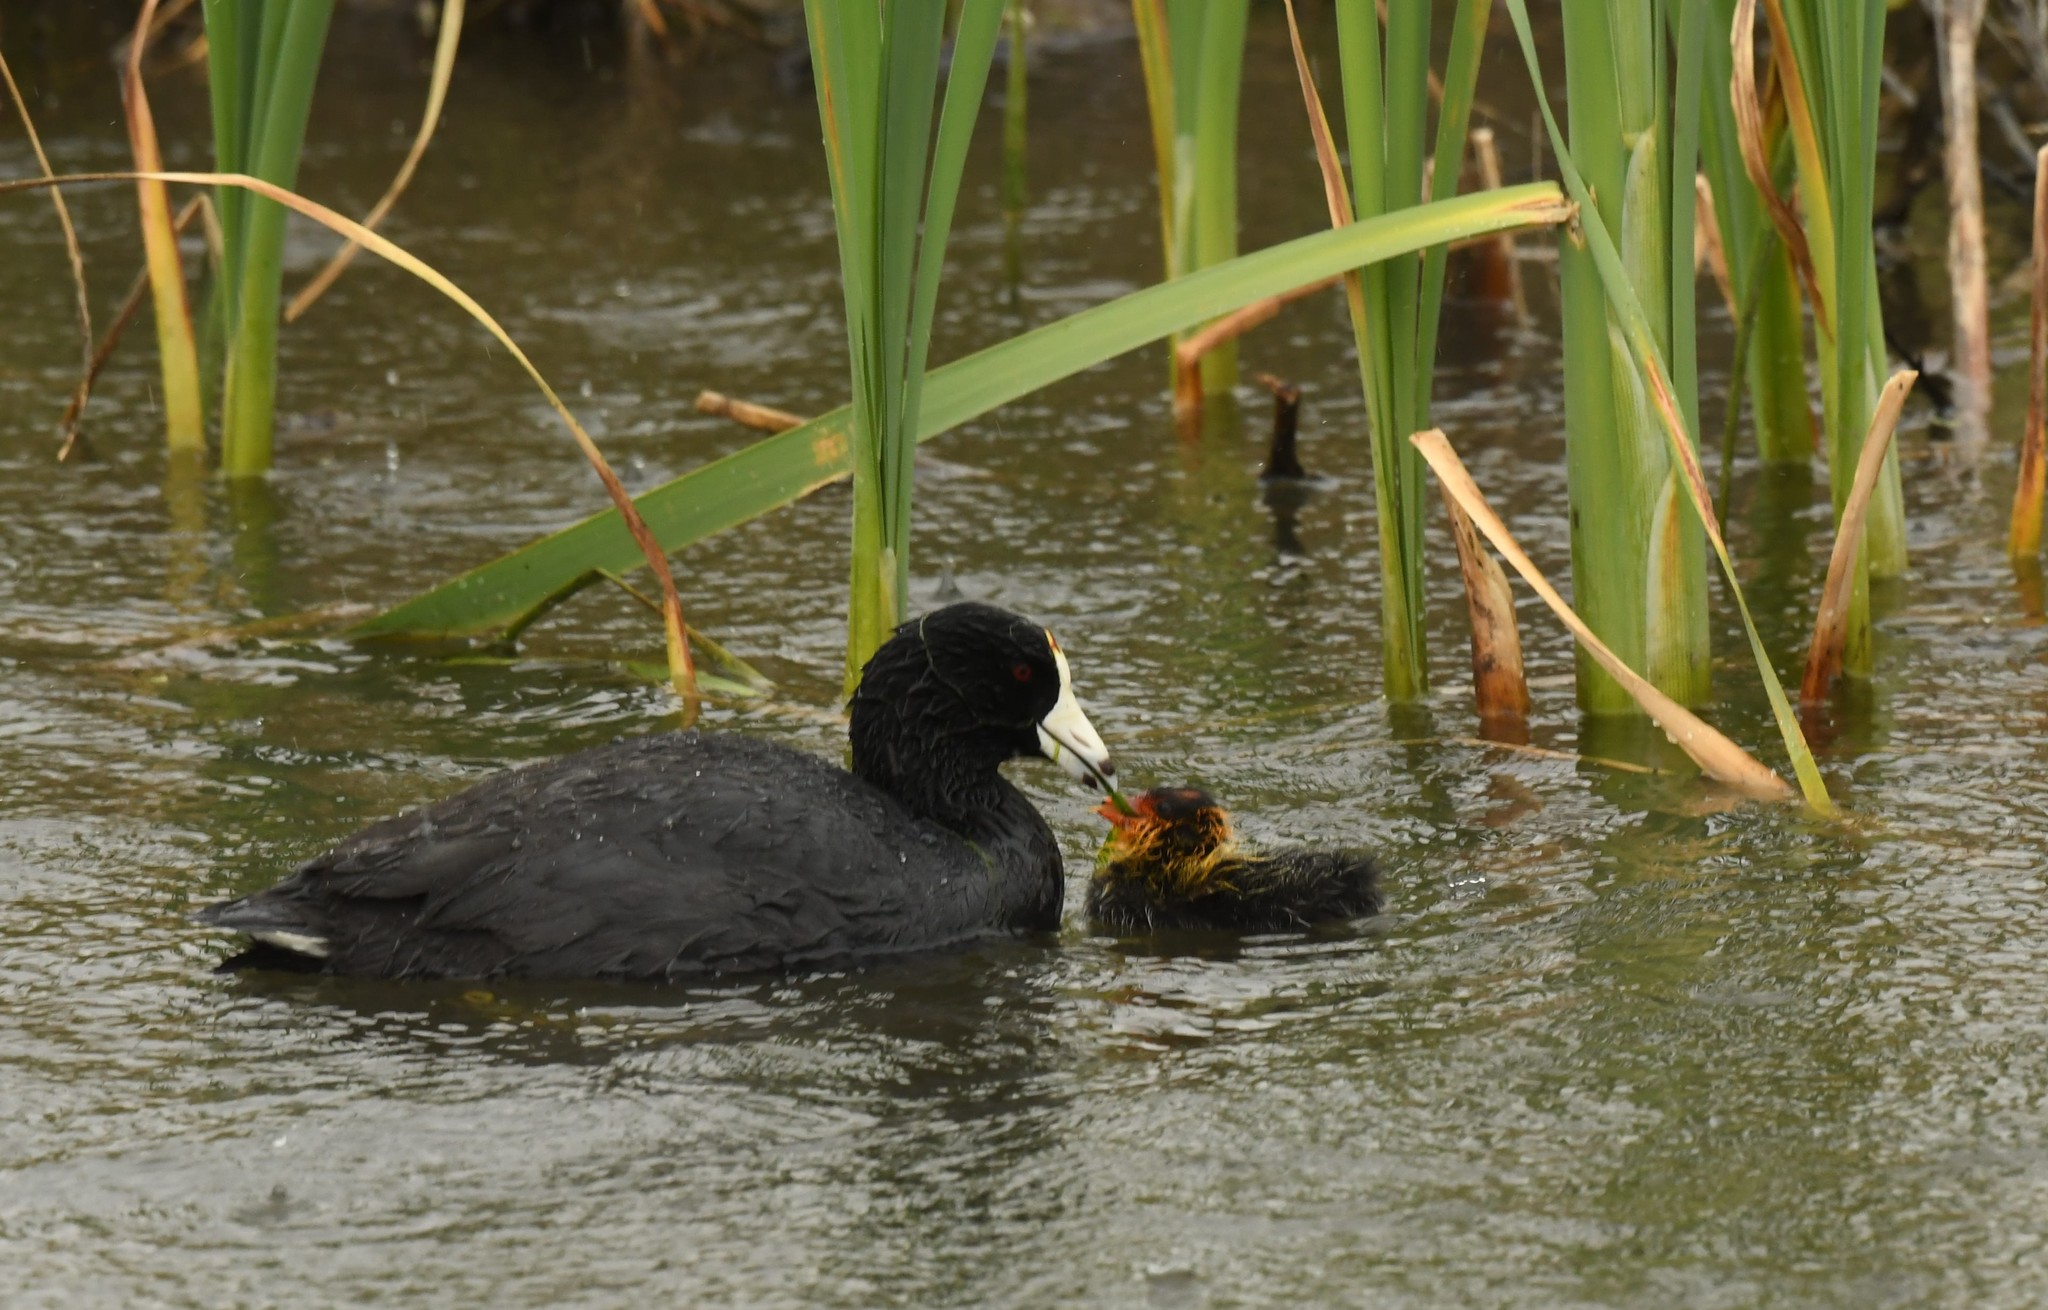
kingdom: Animalia
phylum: Chordata
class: Aves
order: Gruiformes
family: Rallidae
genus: Fulica
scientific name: Fulica americana
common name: American coot
